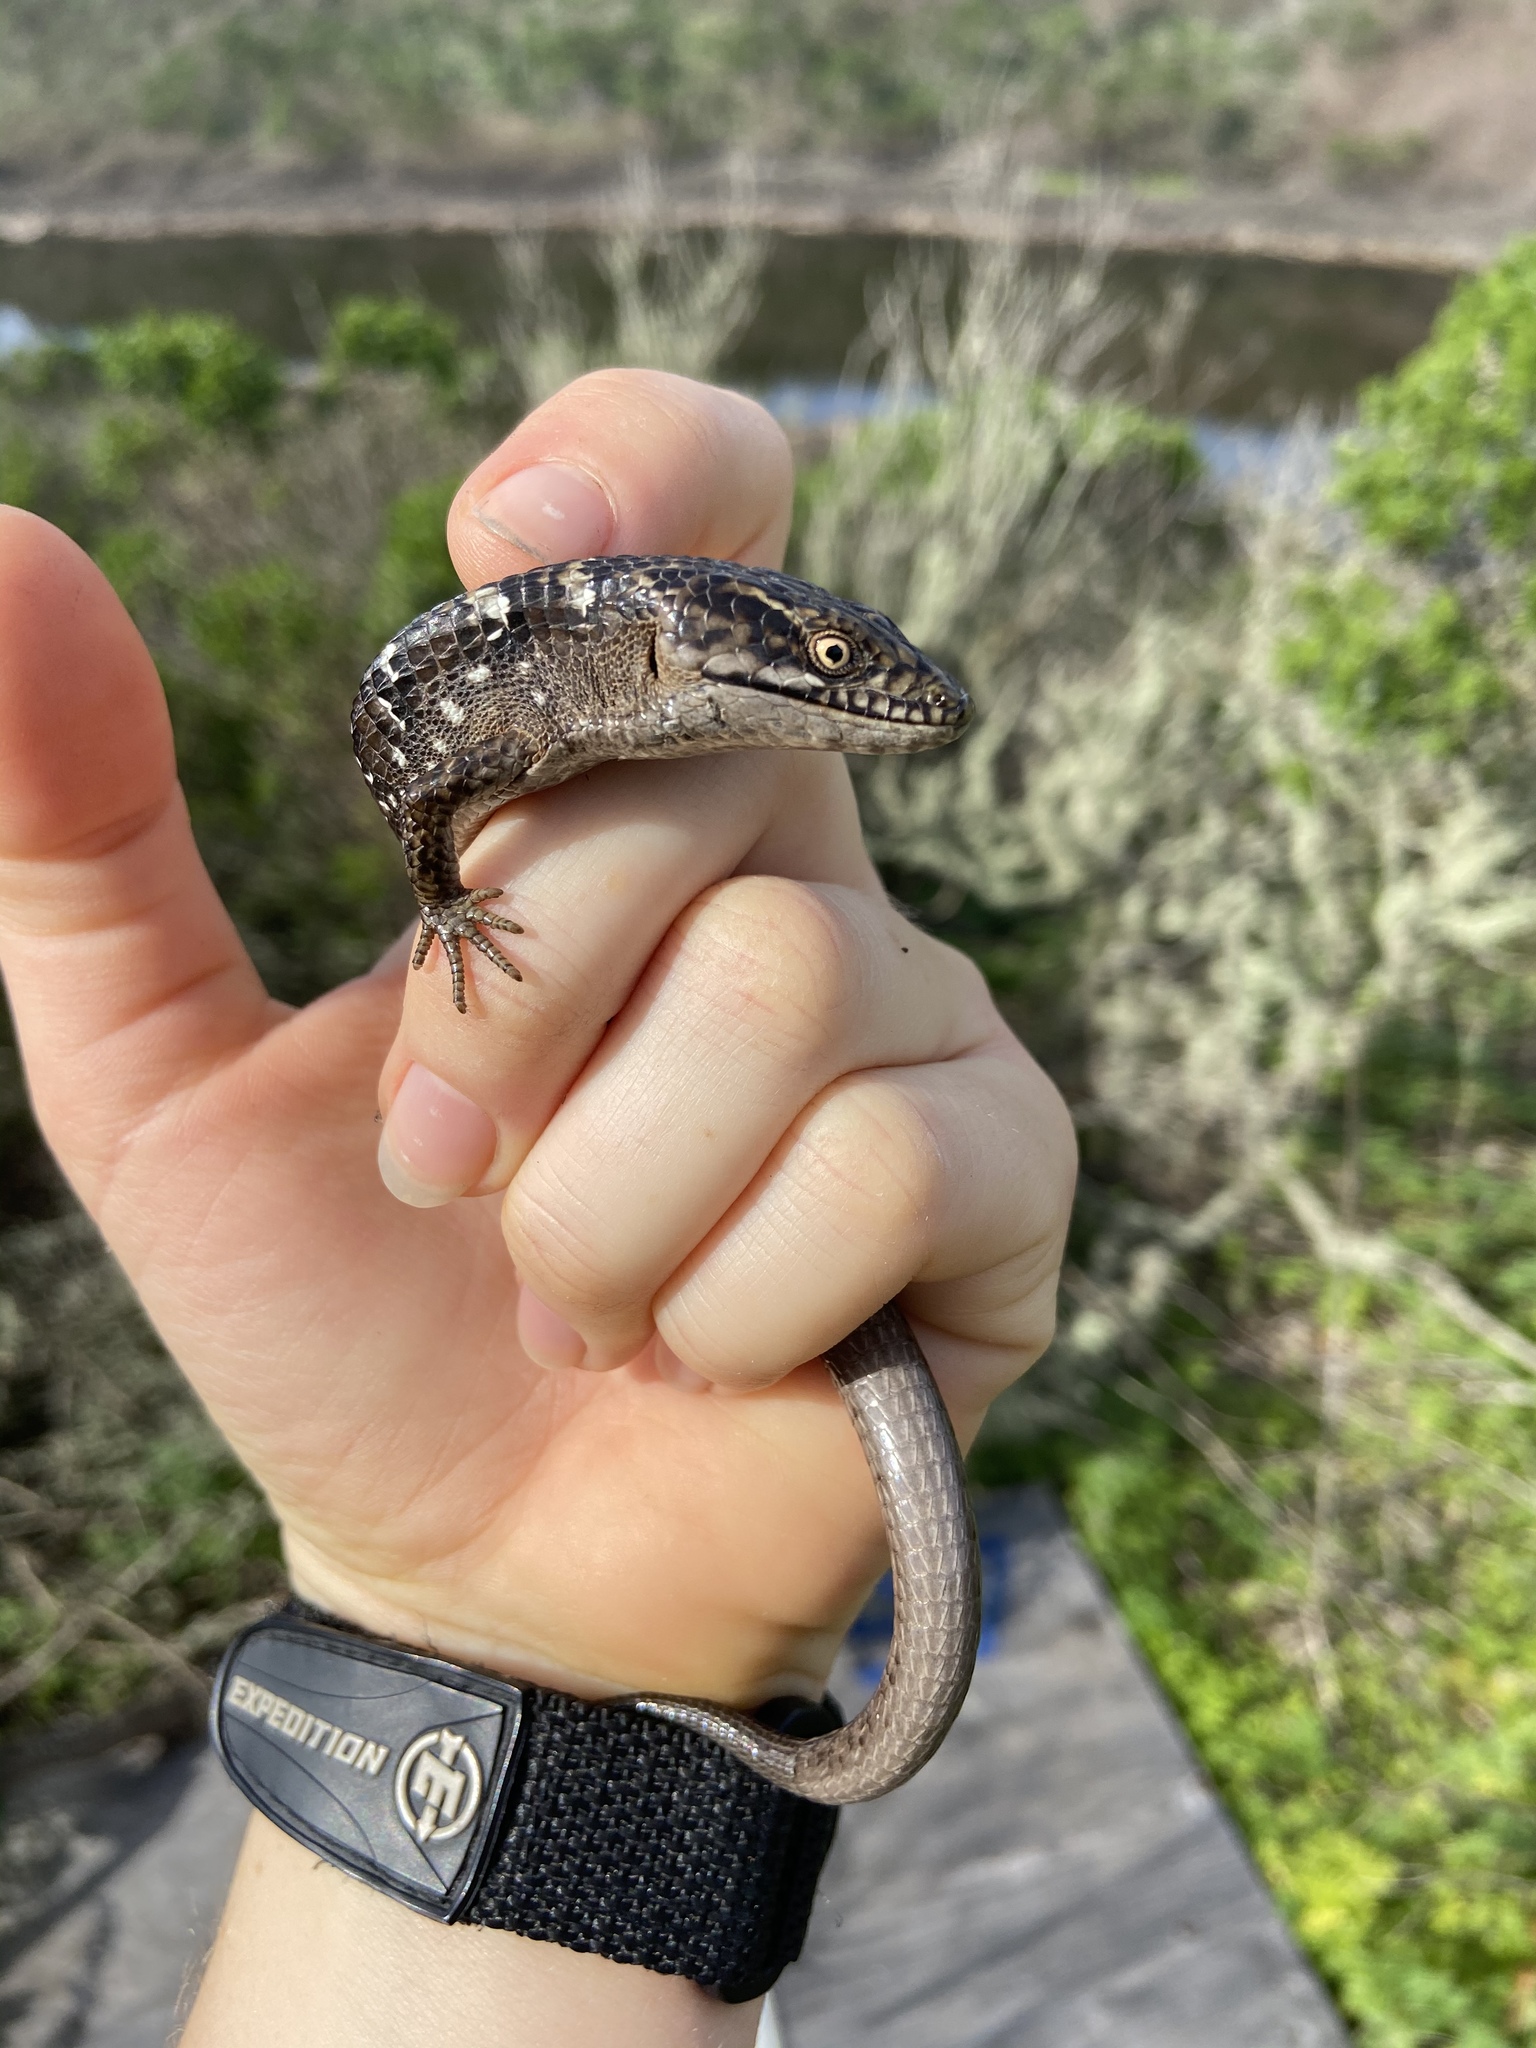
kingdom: Animalia
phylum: Chordata
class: Squamata
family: Anguidae
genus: Elgaria
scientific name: Elgaria multicarinata
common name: Southern alligator lizard
